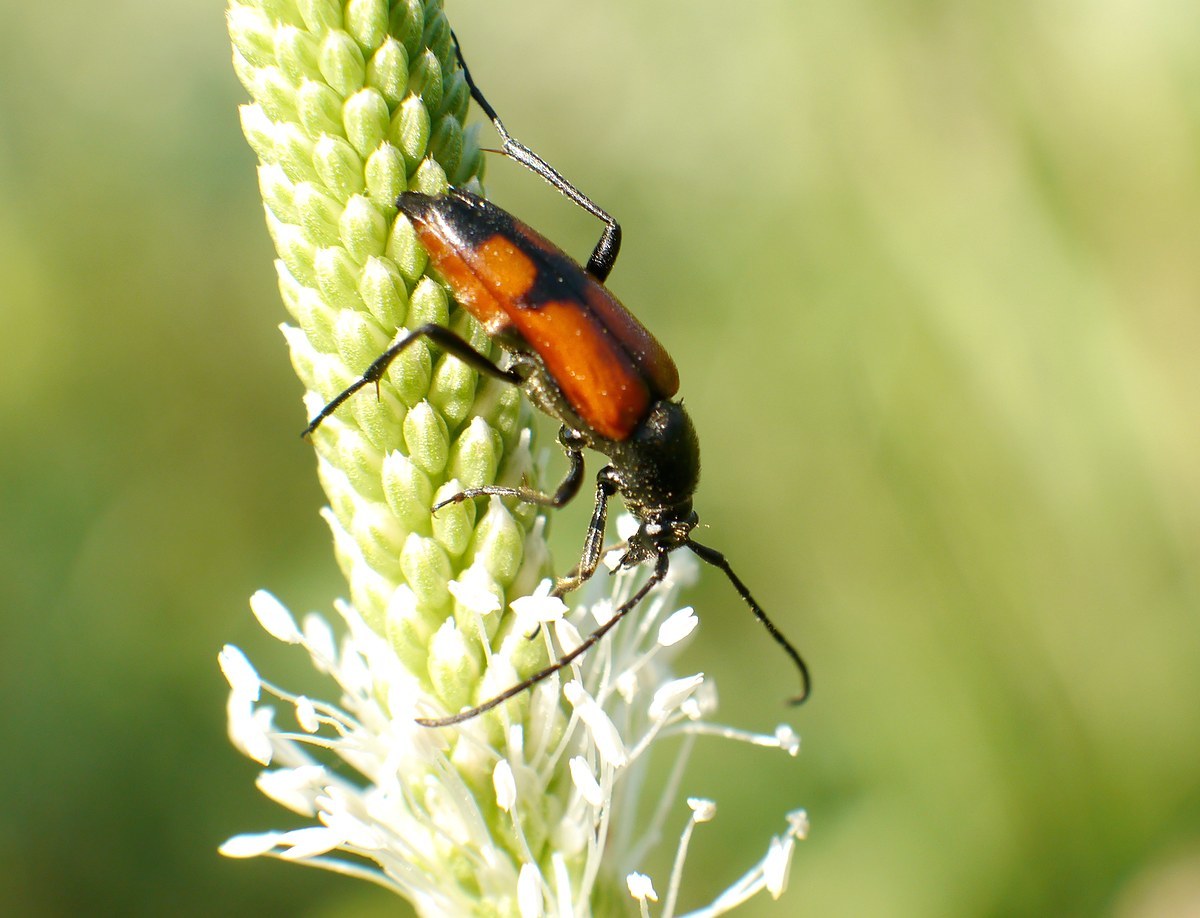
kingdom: Animalia
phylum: Arthropoda
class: Insecta
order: Coleoptera
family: Cerambycidae
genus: Stenurella
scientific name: Stenurella bifasciata
